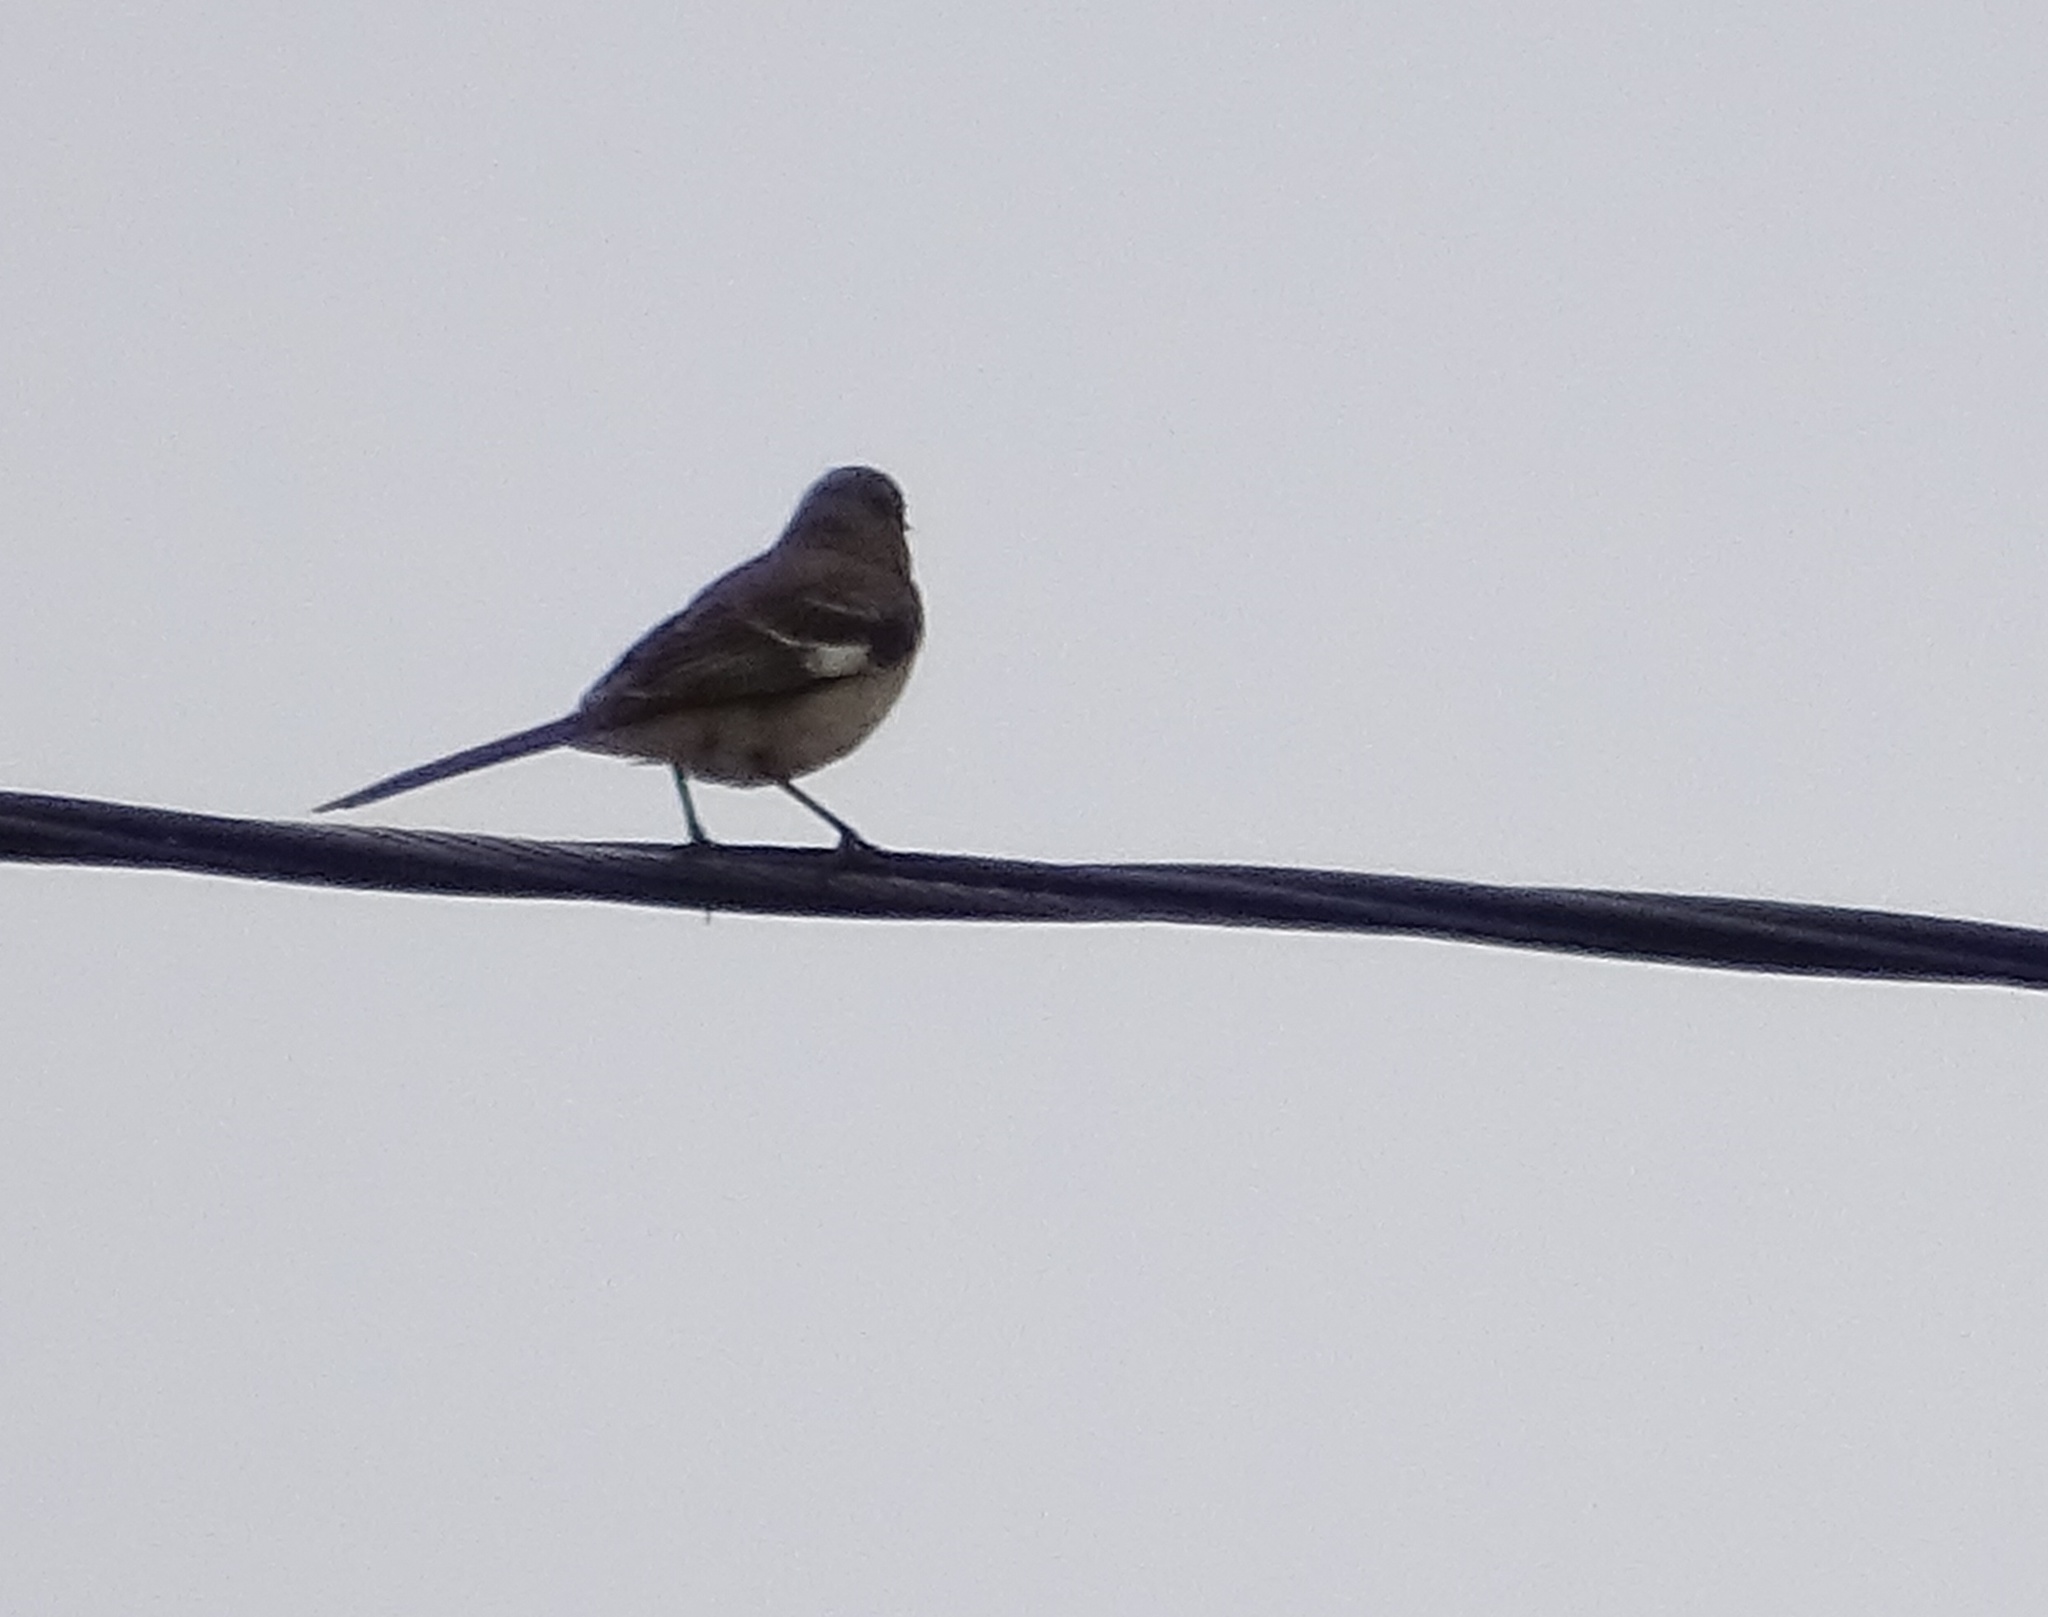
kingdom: Animalia
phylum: Chordata
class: Aves
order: Passeriformes
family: Mimidae
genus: Mimus
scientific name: Mimus polyglottos
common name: Northern mockingbird
